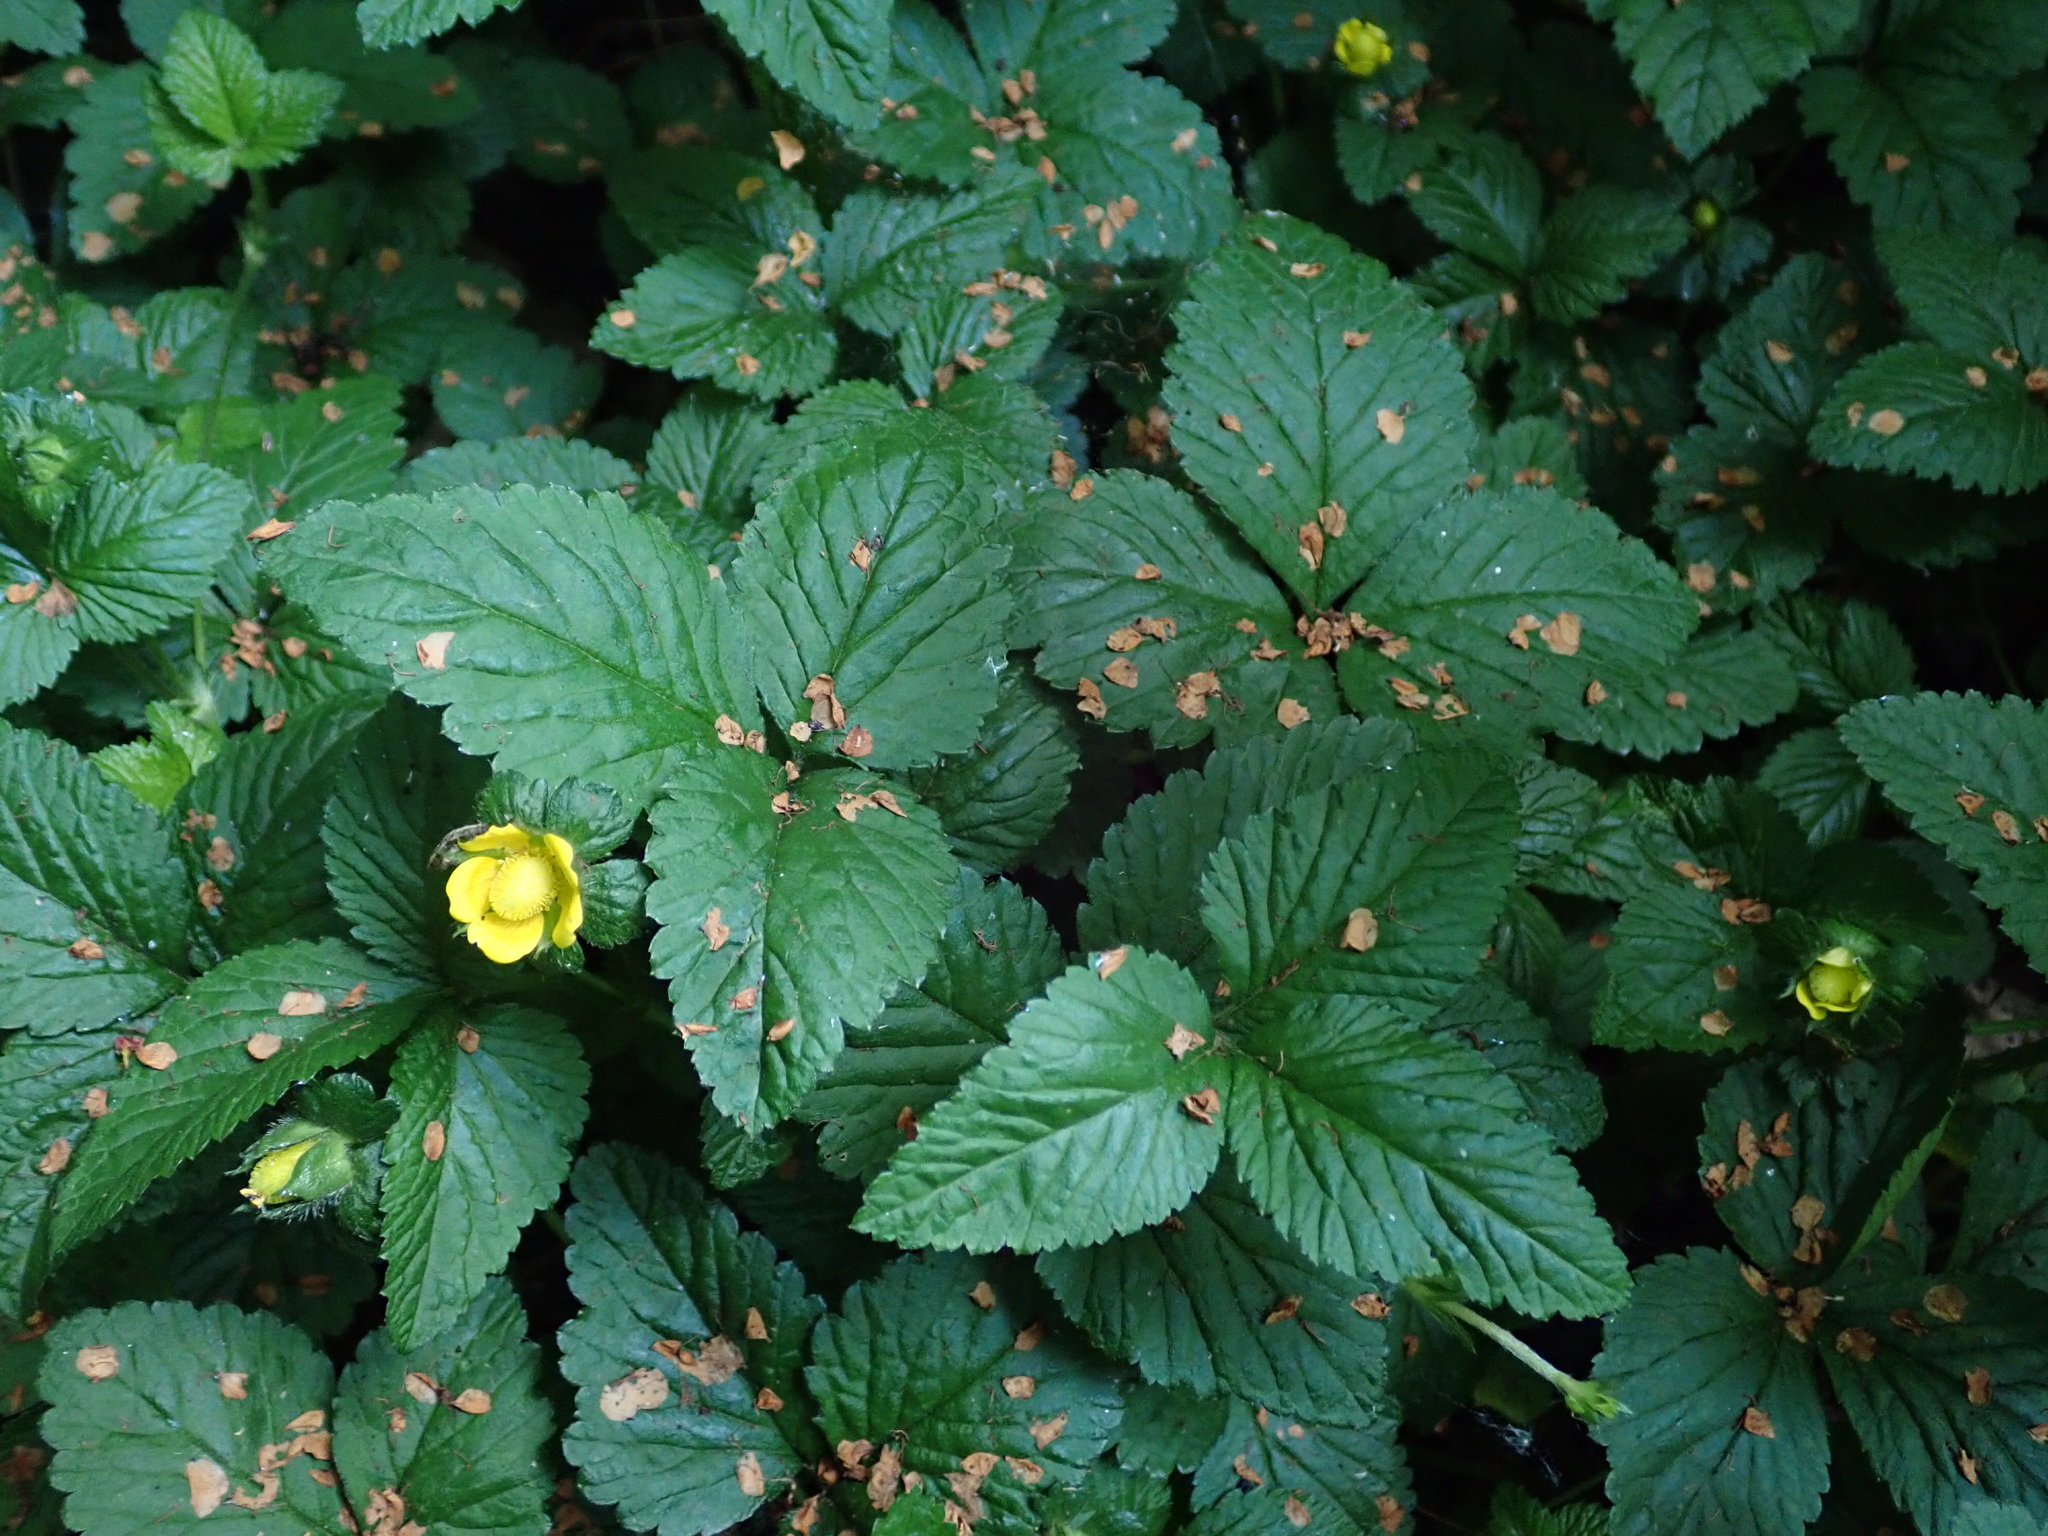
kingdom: Plantae
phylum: Tracheophyta
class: Magnoliopsida
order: Rosales
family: Rosaceae
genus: Potentilla
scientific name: Potentilla indica
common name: Yellow-flowered strawberry
